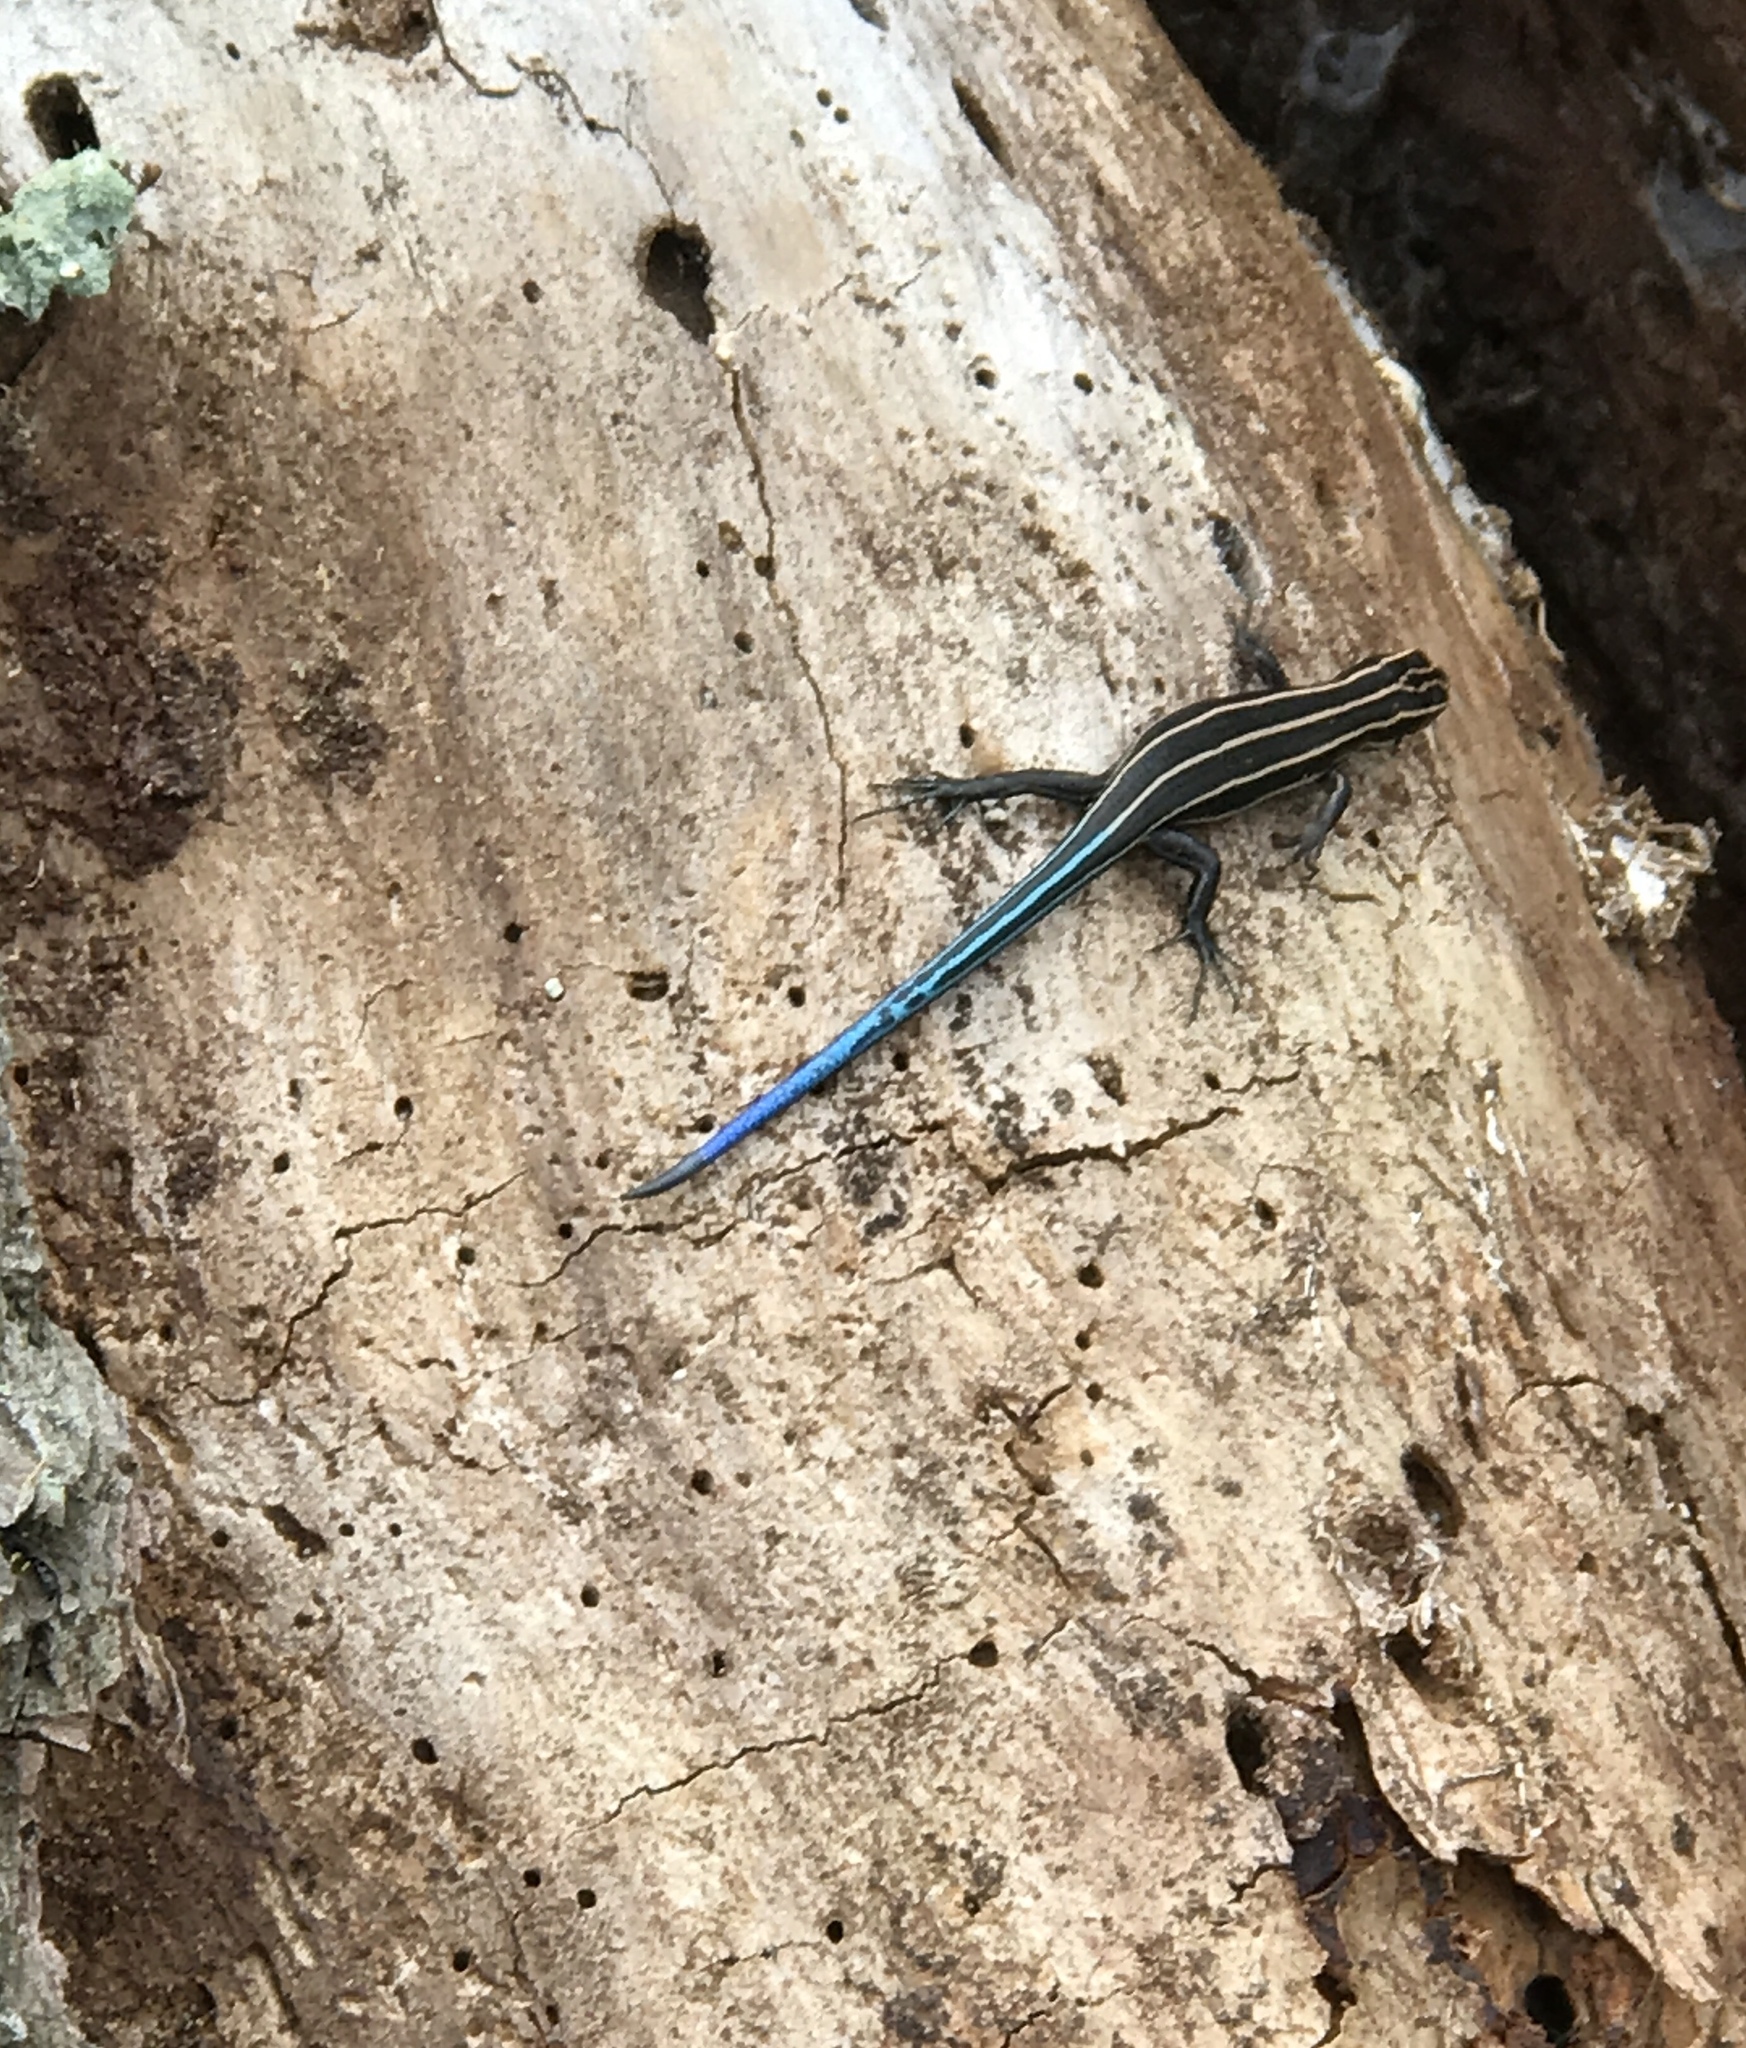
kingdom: Animalia
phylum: Chordata
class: Squamata
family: Scincidae
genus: Plestiodon
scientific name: Plestiodon fasciatus
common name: Five-lined skink
